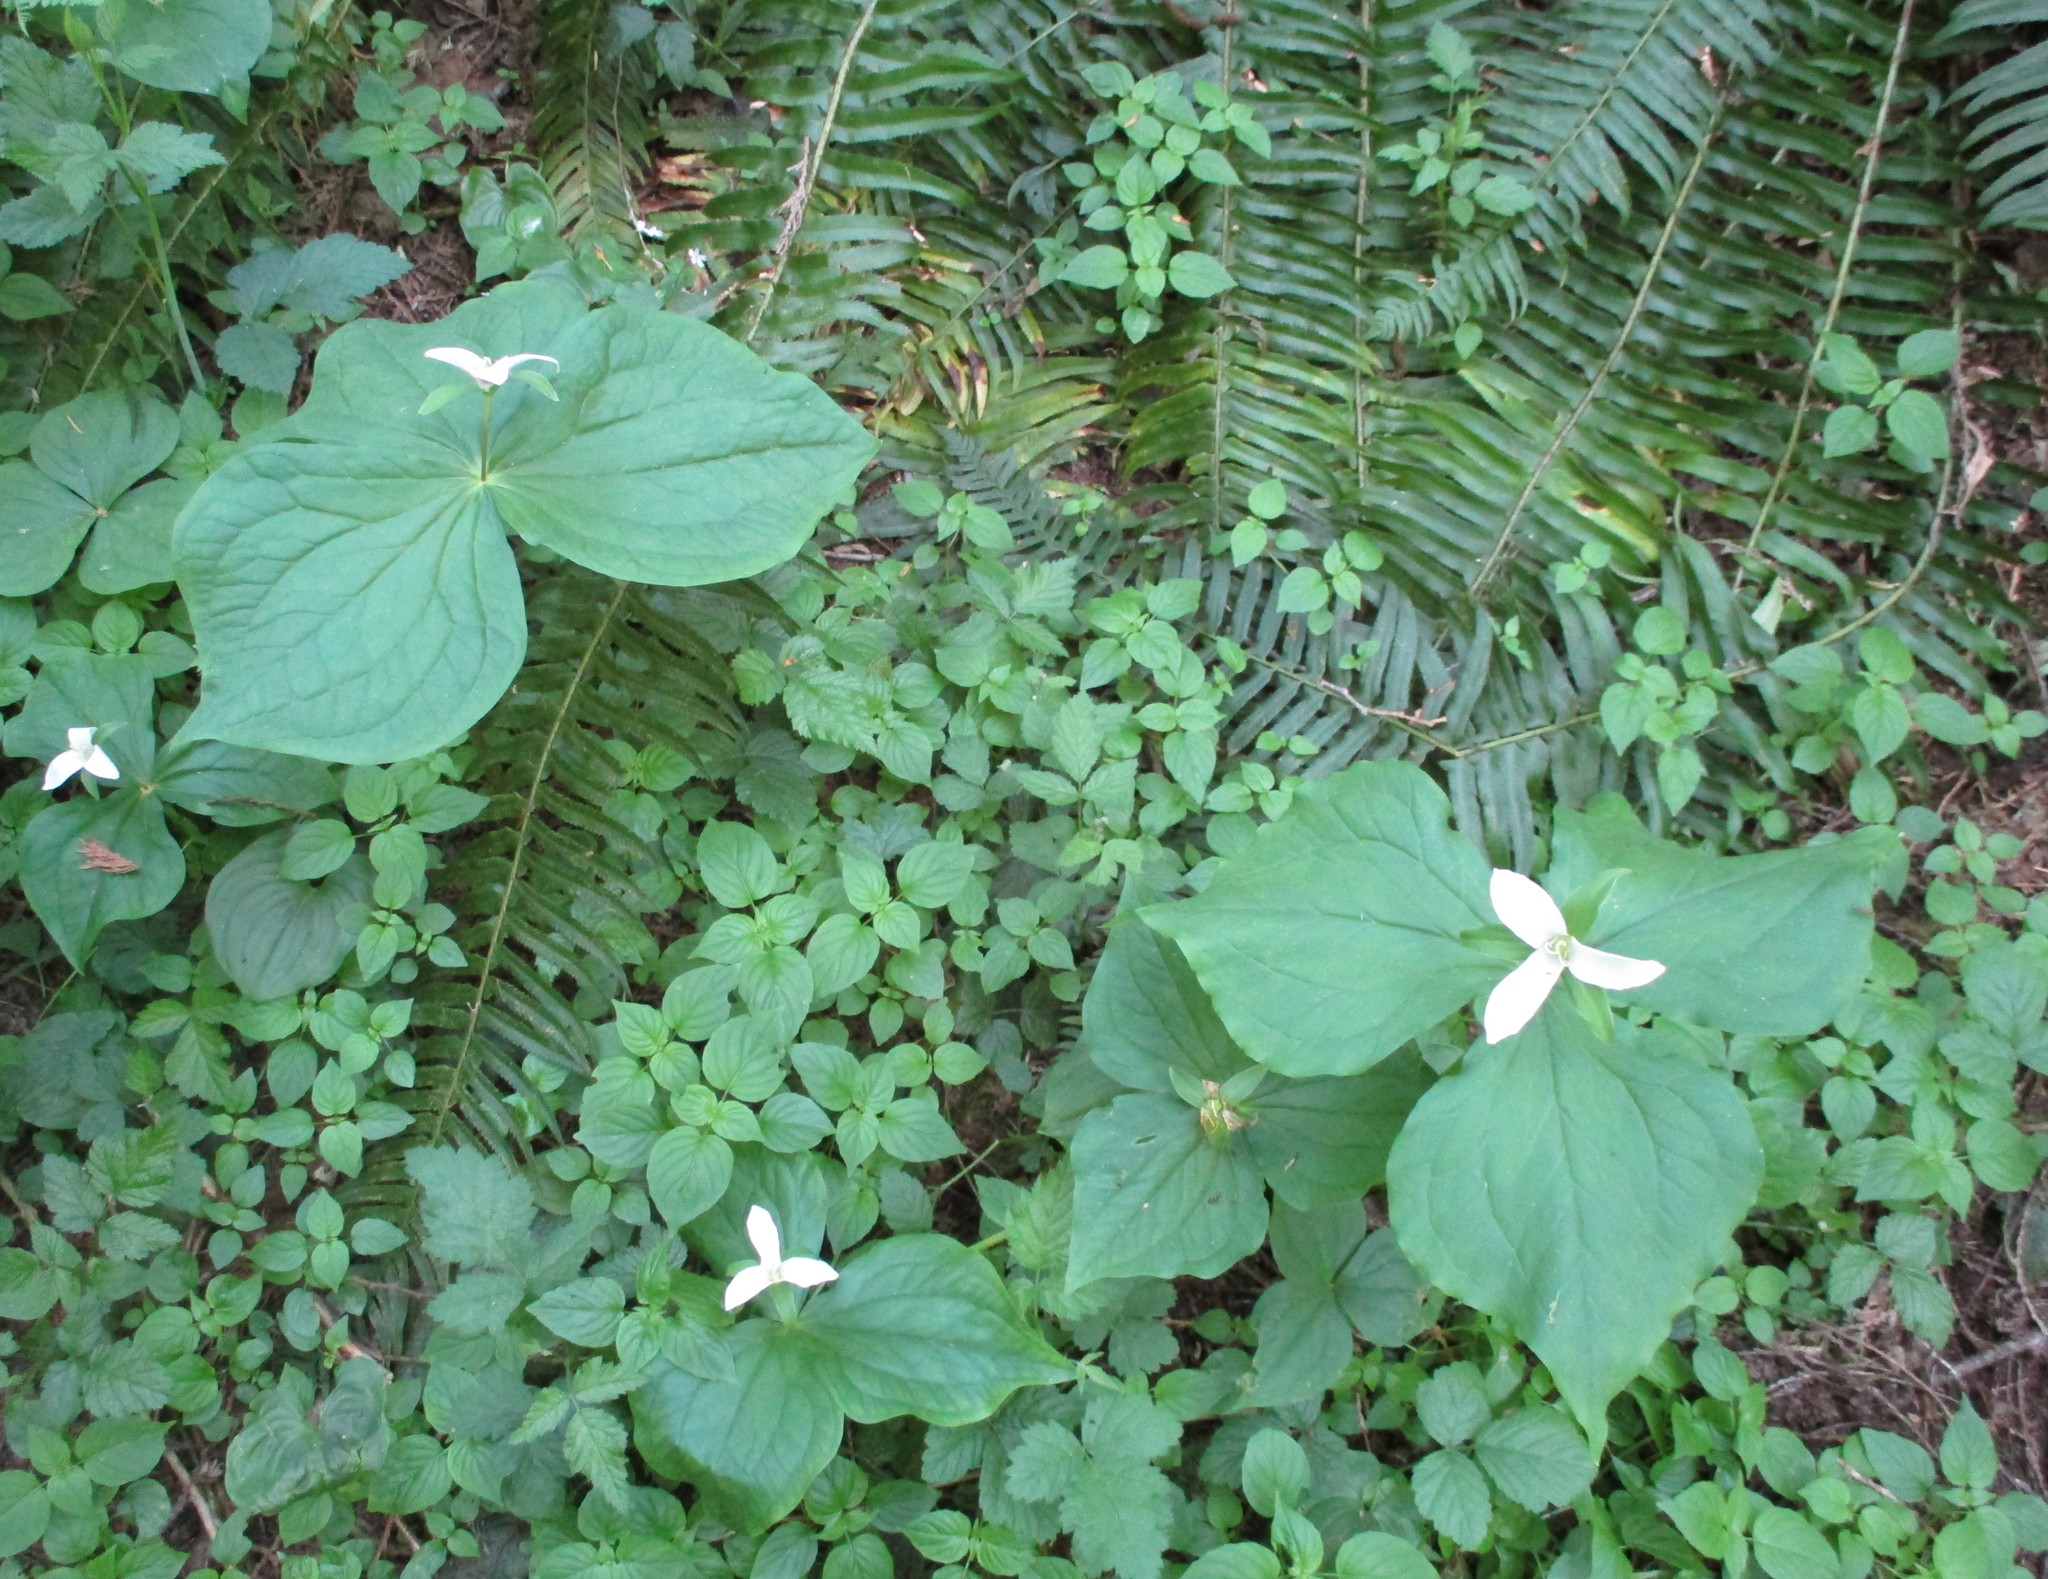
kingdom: Plantae
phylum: Tracheophyta
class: Liliopsida
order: Liliales
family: Melanthiaceae
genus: Trillium
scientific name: Trillium ovatum
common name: Pacific trillium
